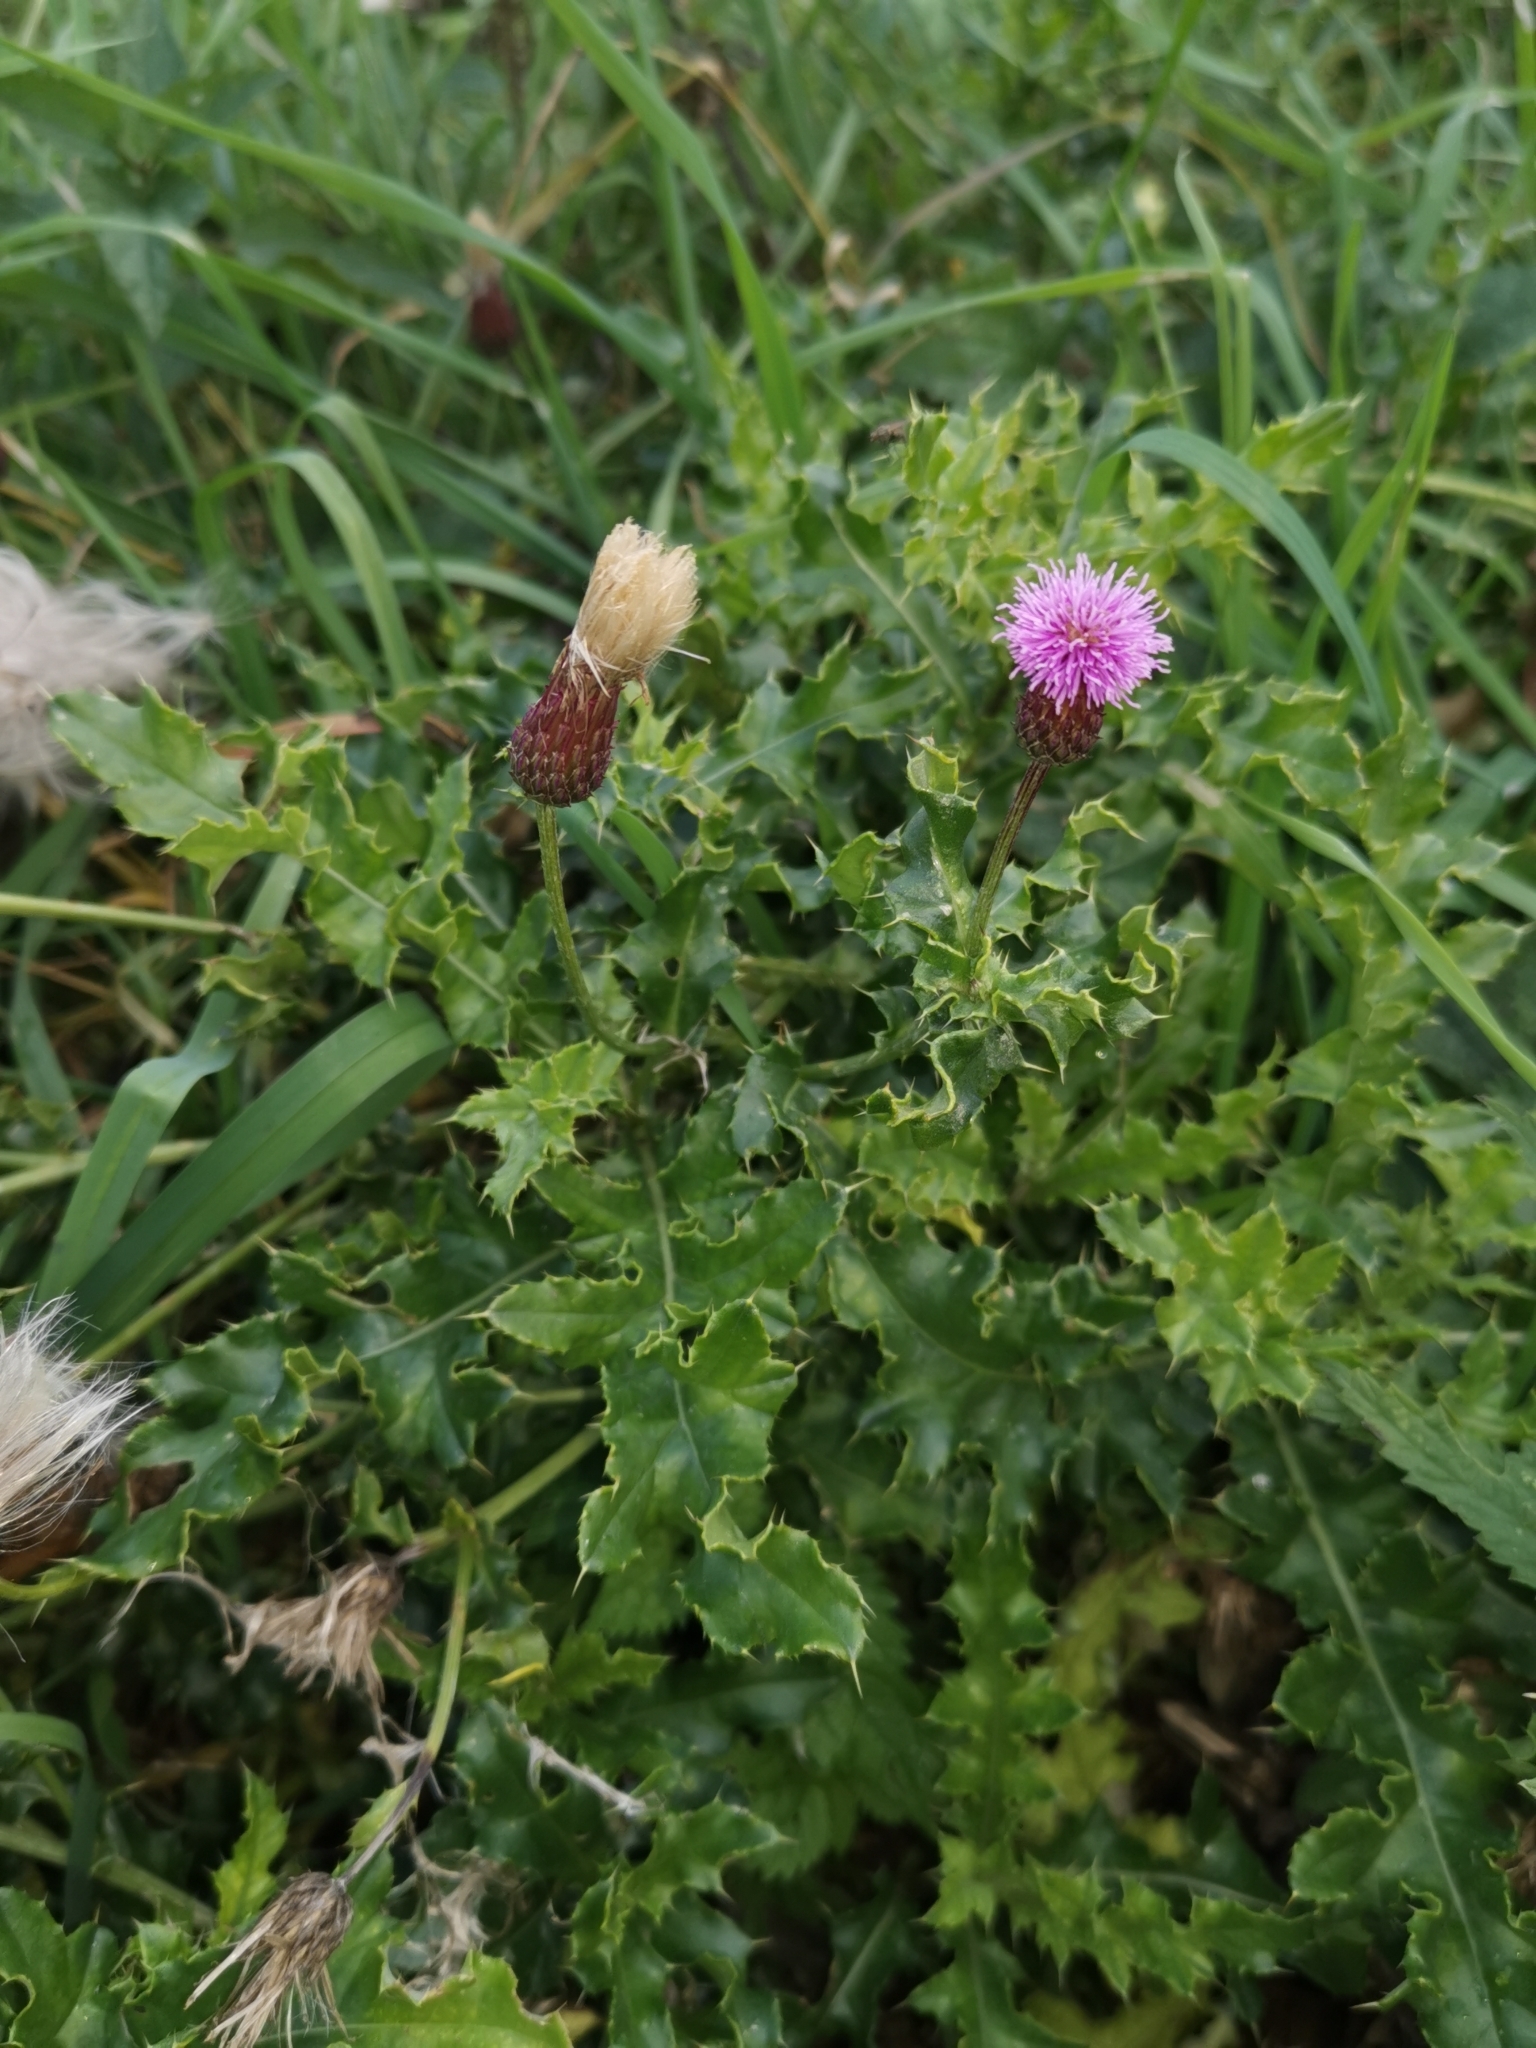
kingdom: Plantae
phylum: Tracheophyta
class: Magnoliopsida
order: Asterales
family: Asteraceae
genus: Cirsium
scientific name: Cirsium arvense
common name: Creeping thistle
